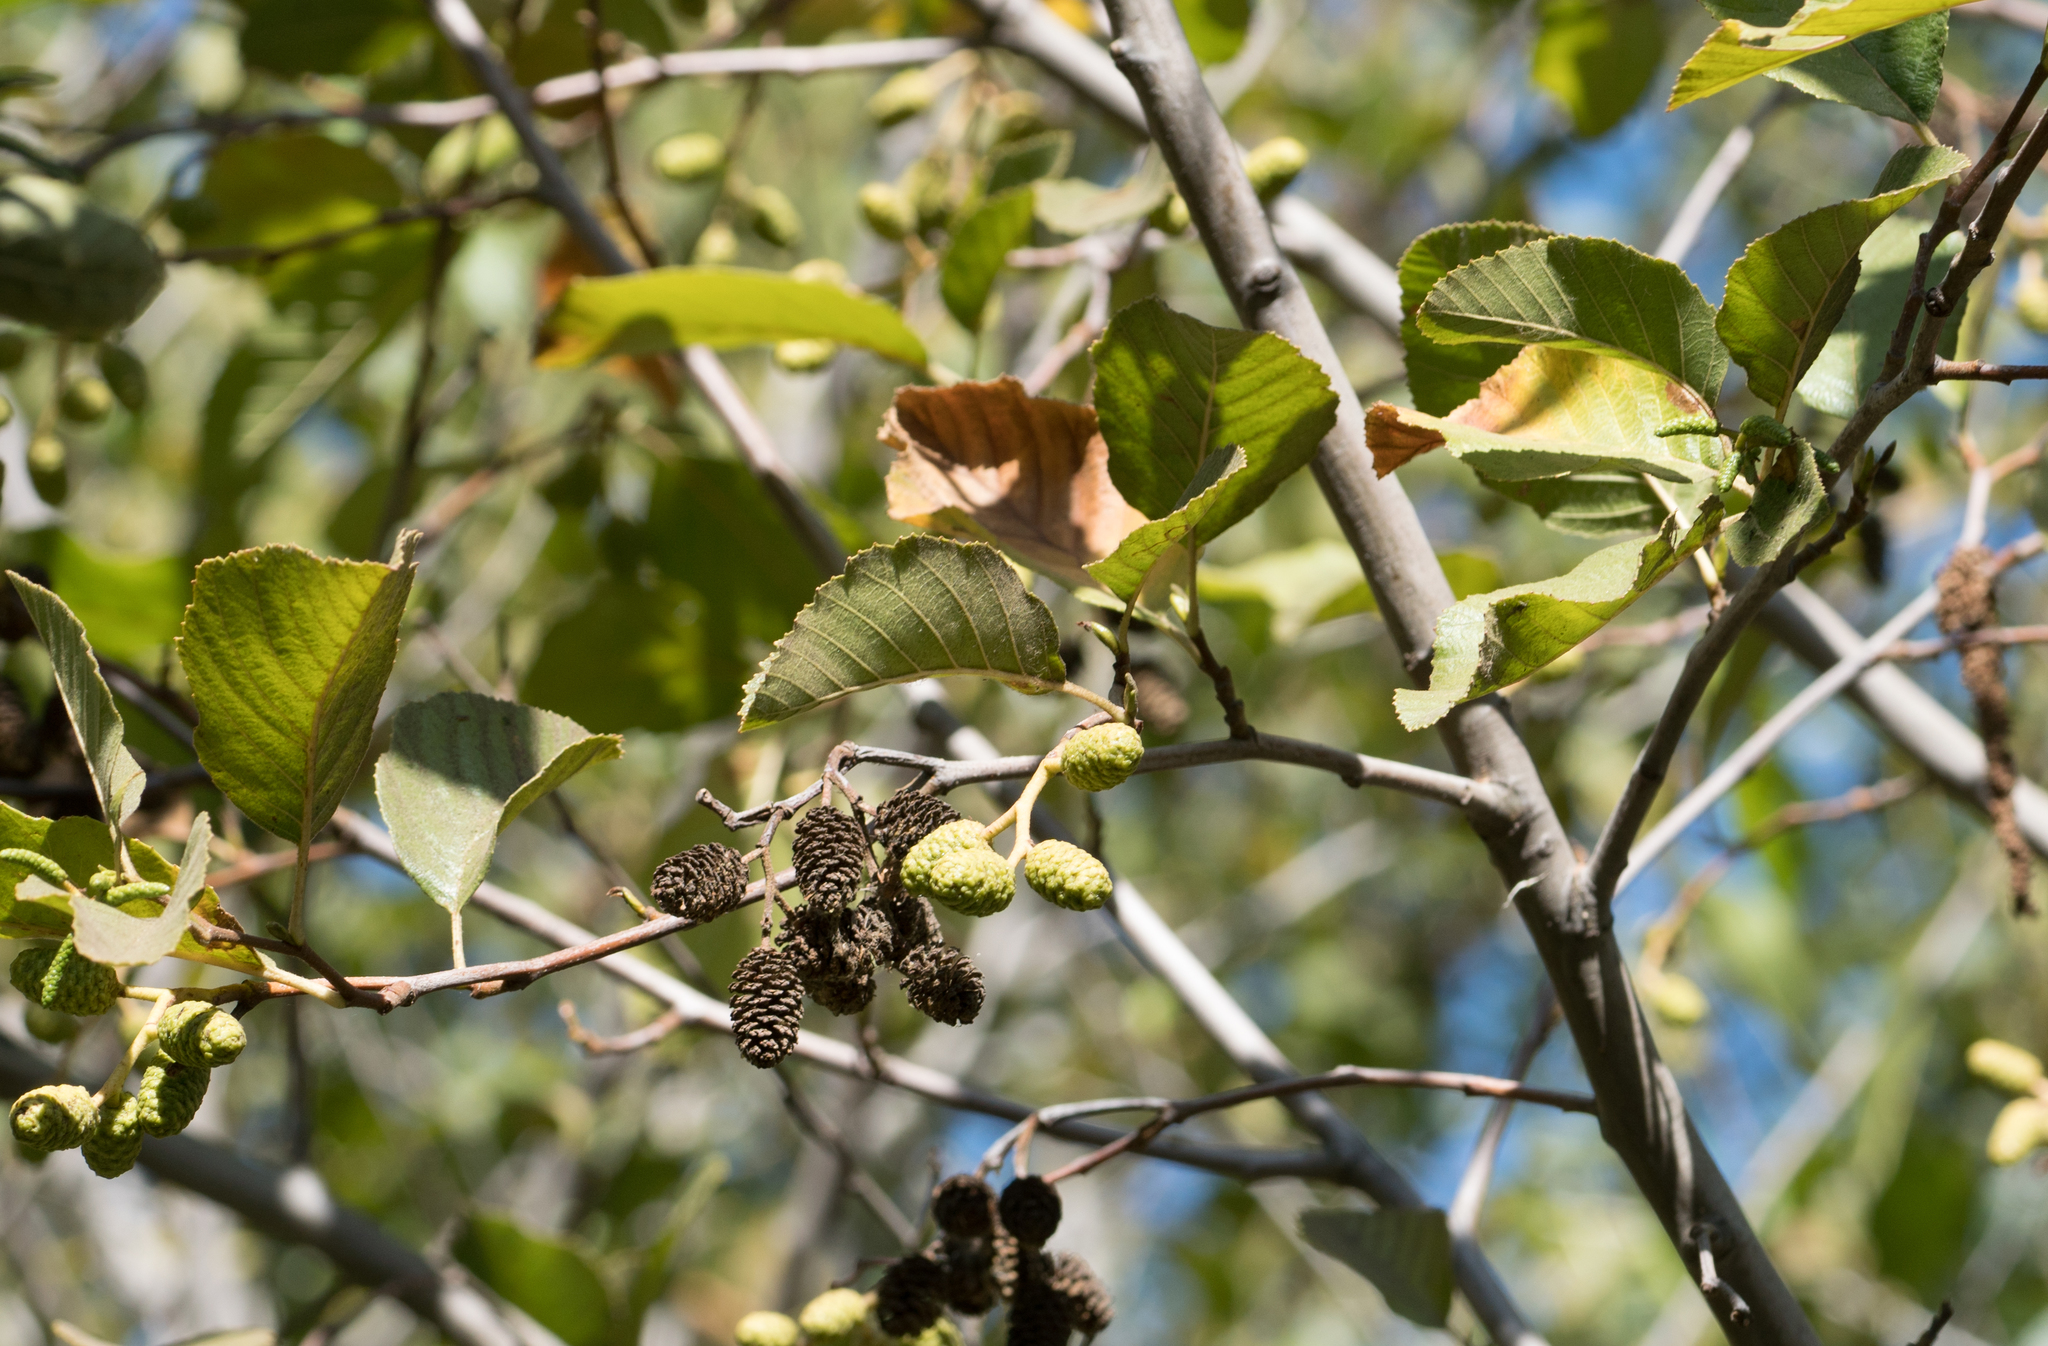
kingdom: Plantae
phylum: Tracheophyta
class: Magnoliopsida
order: Fagales
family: Betulaceae
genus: Alnus
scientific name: Alnus rhombifolia
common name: California alder
